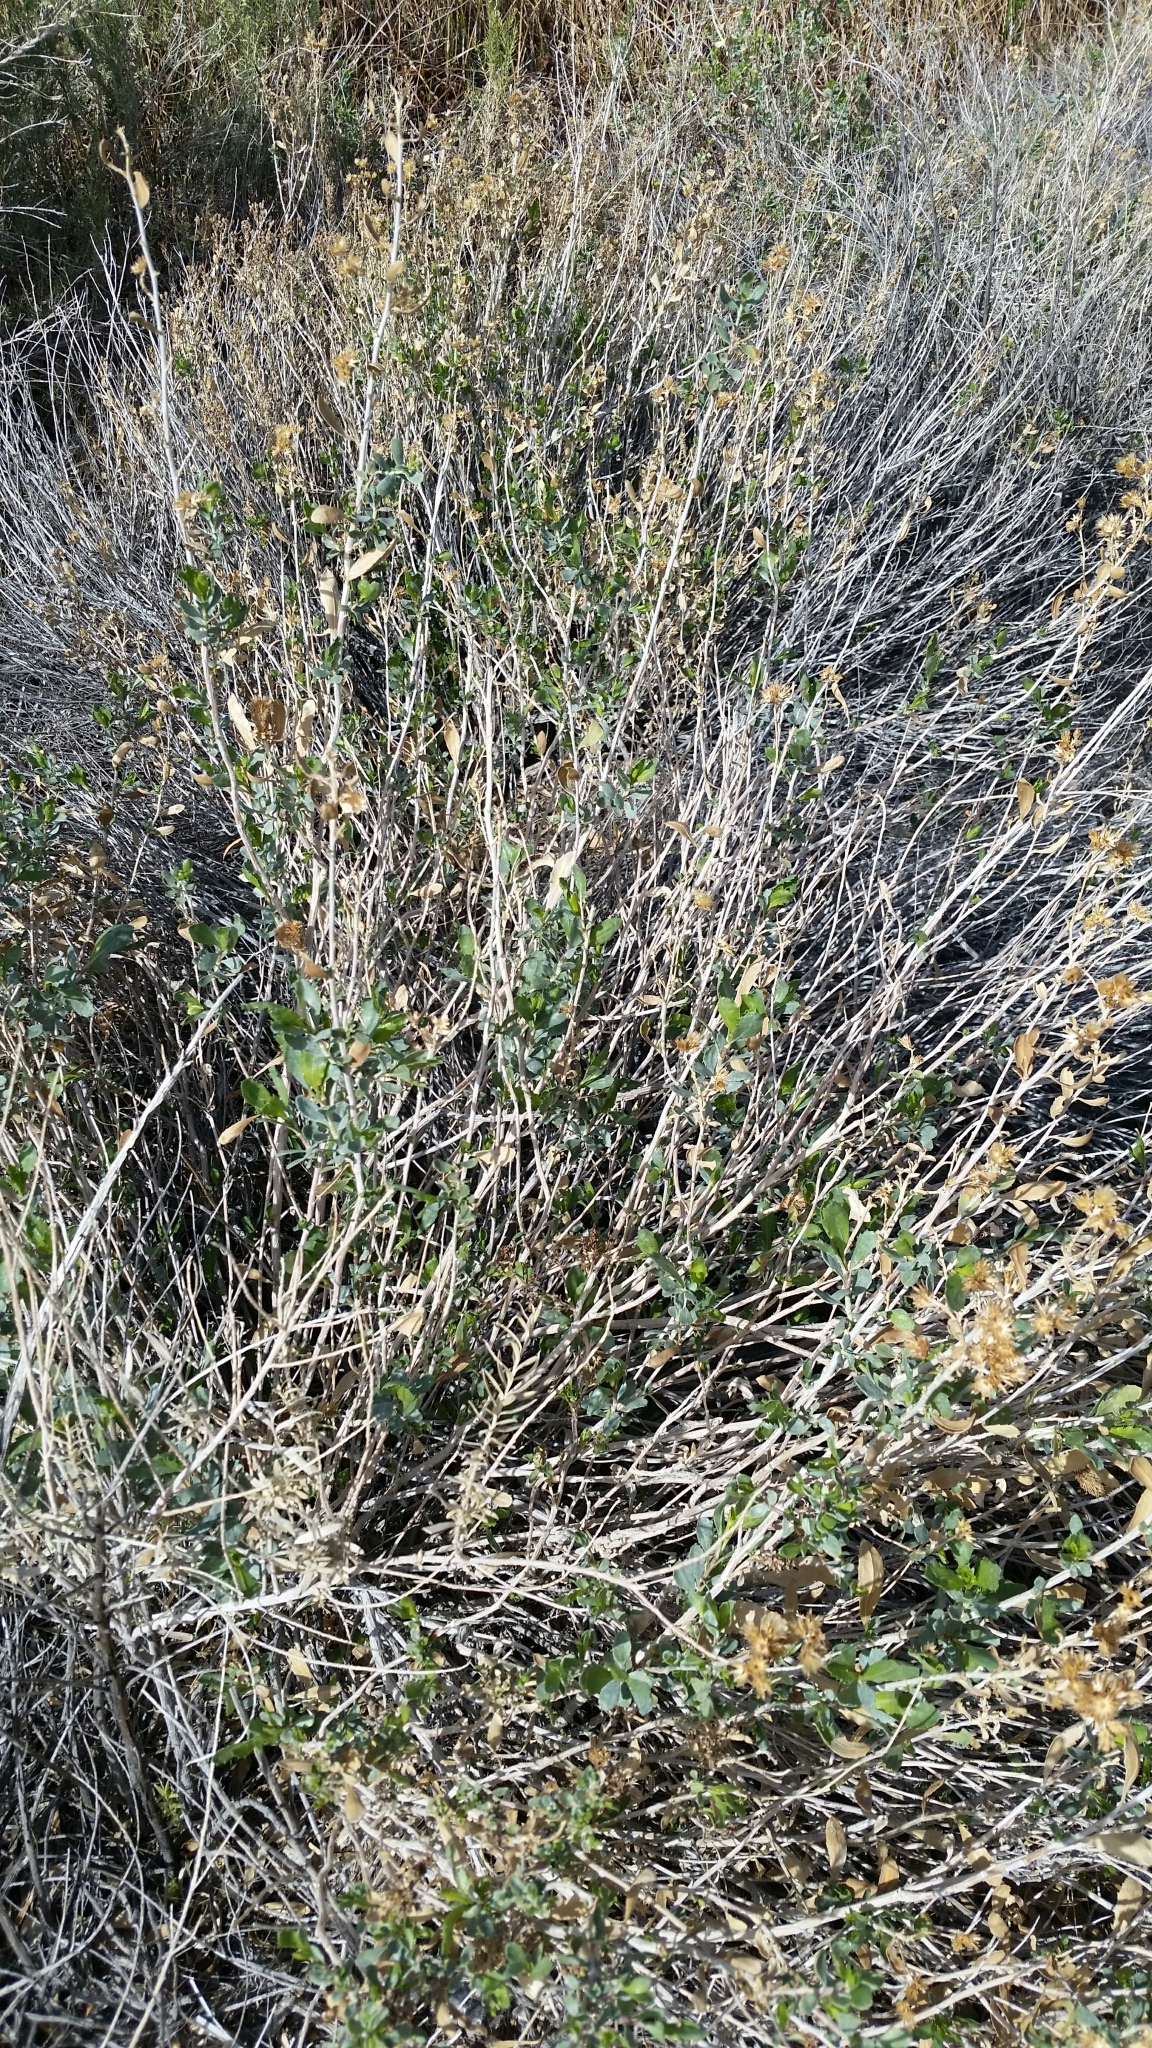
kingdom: Plantae
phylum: Tracheophyta
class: Magnoliopsida
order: Asterales
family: Asteraceae
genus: Isocoma
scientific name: Isocoma acradenia
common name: Alkali jimmyweed
